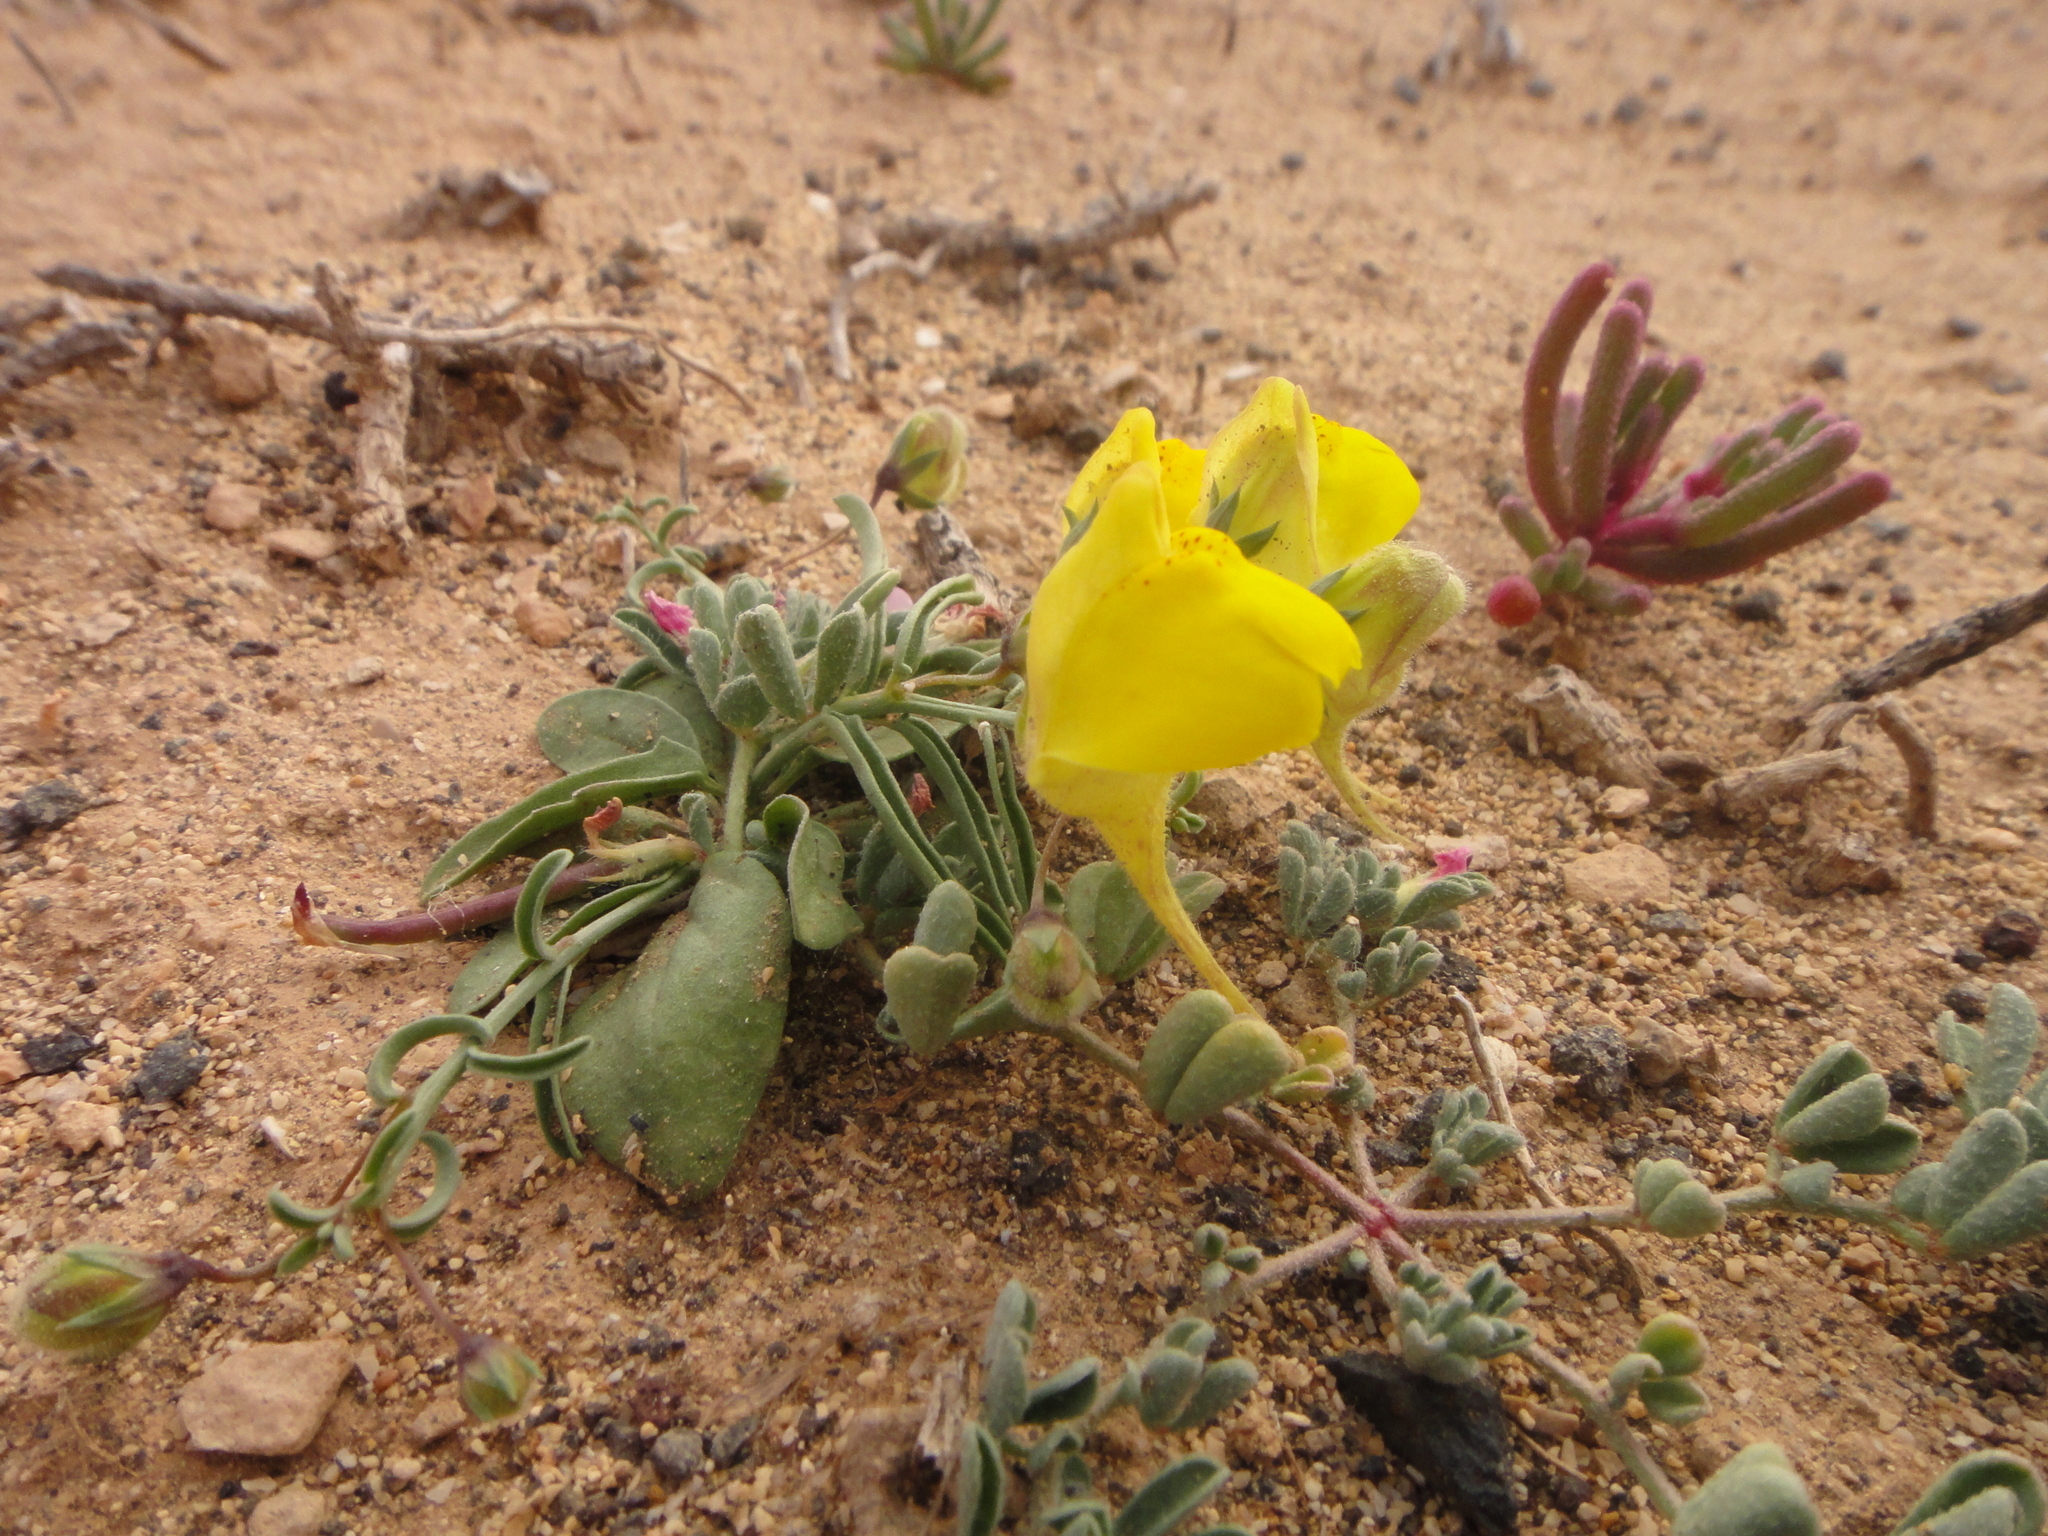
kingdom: Plantae
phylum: Tracheophyta
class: Magnoliopsida
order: Lamiales
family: Plantaginaceae
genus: Nanorrhinum
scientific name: Nanorrhinum heterophyllum
